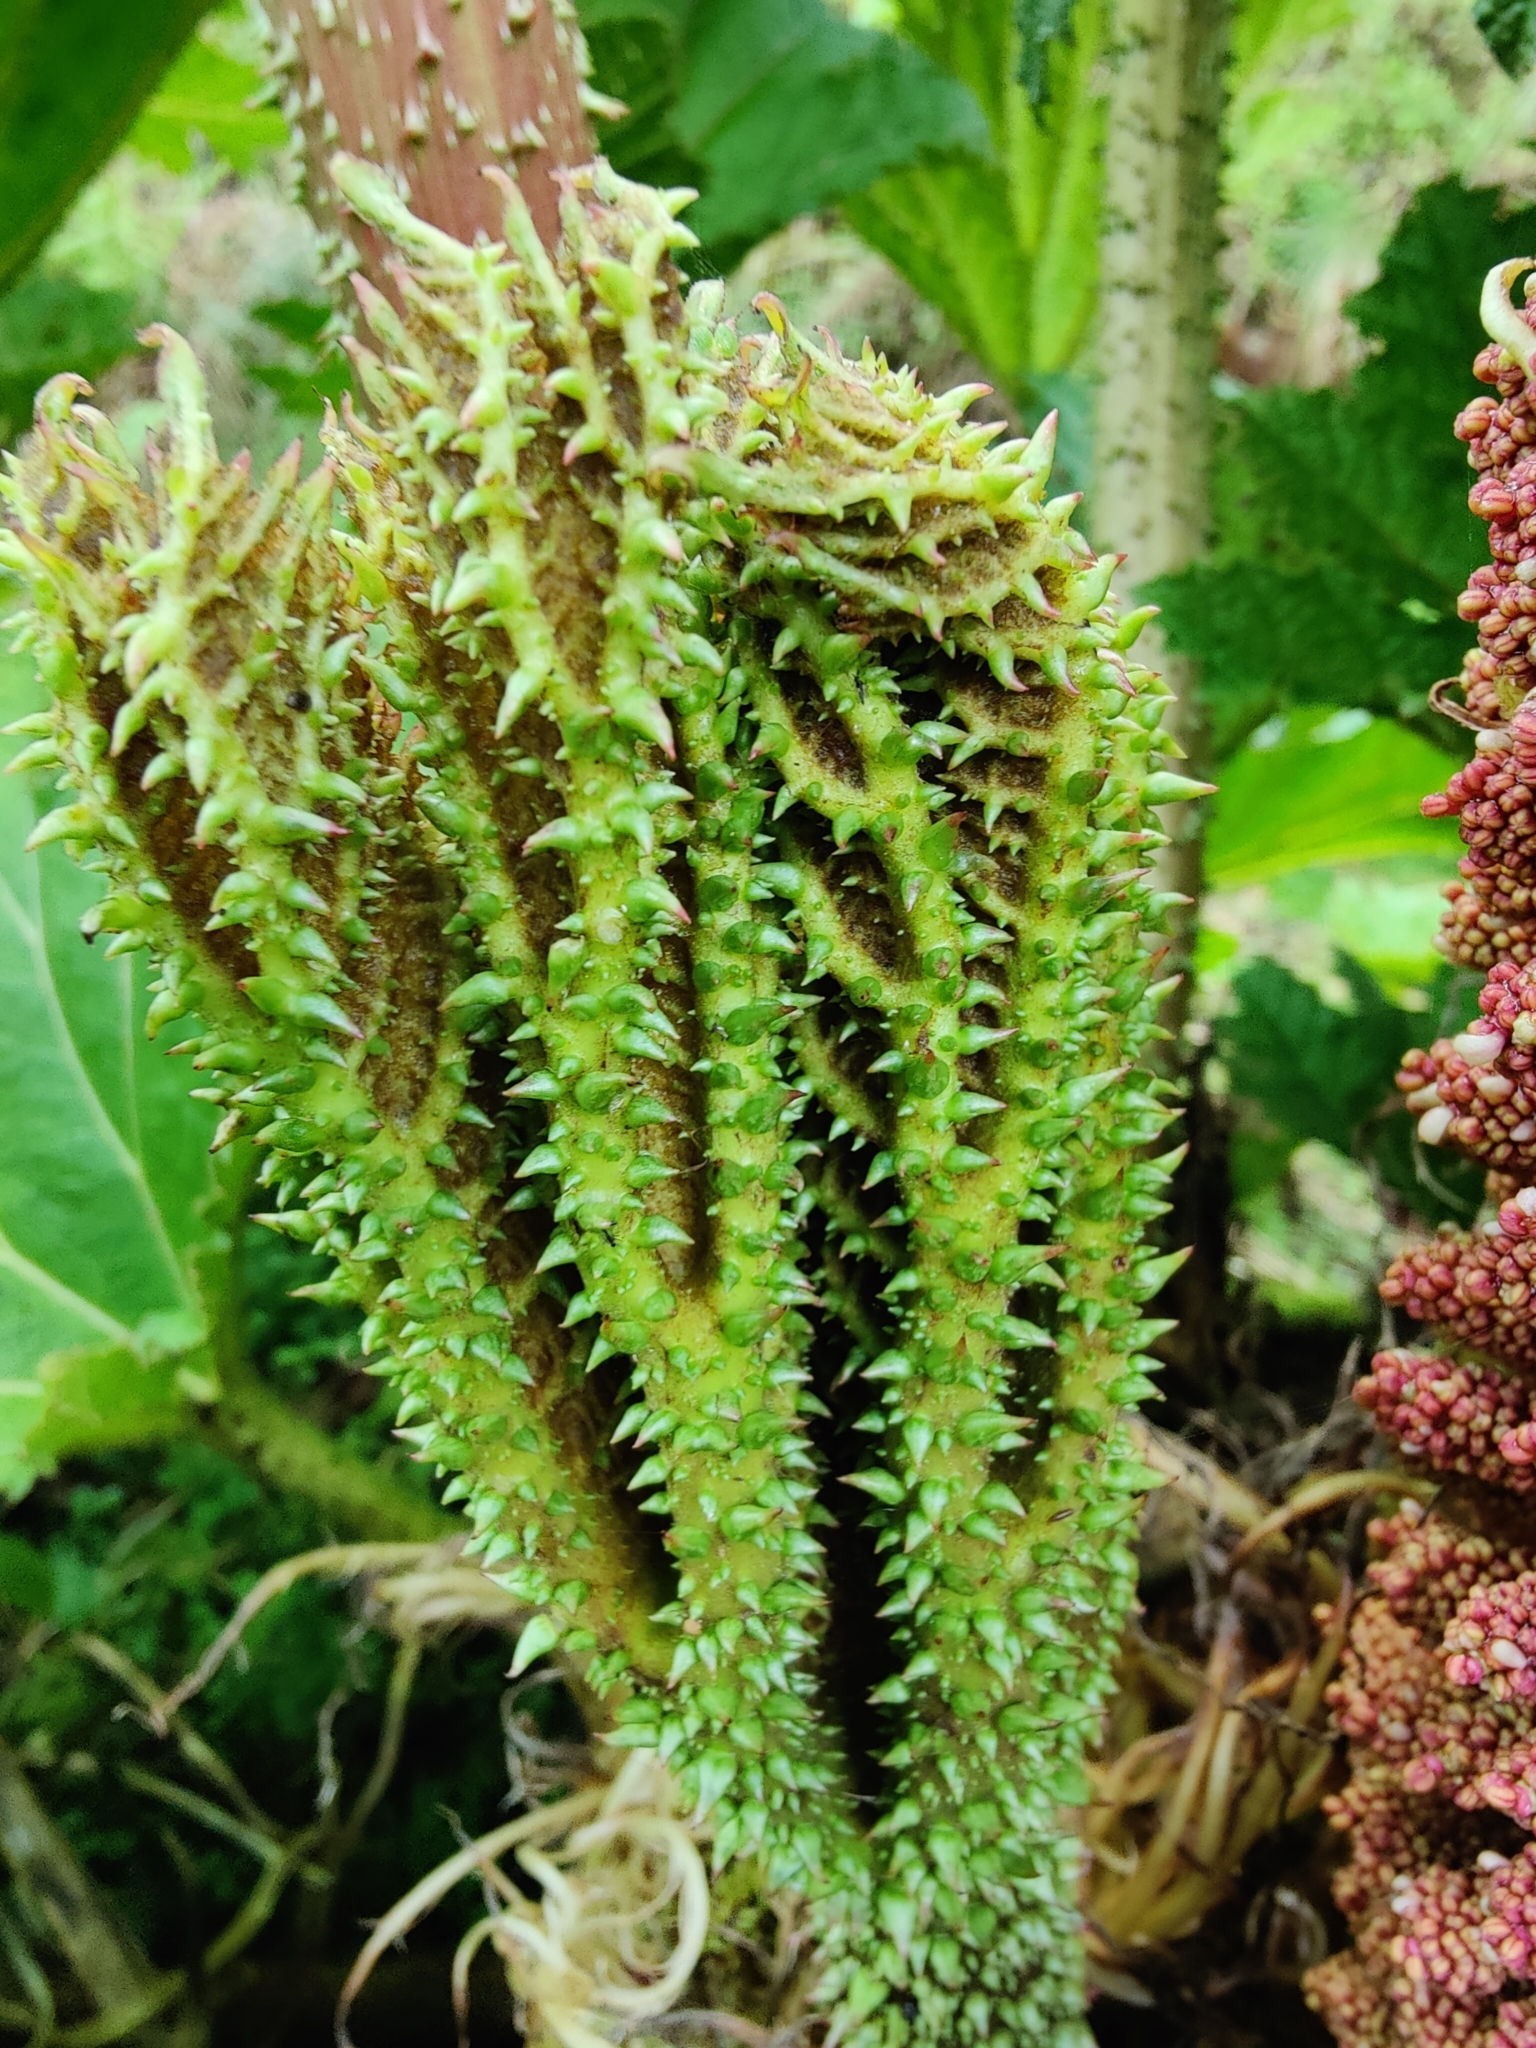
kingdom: Plantae
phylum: Tracheophyta
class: Magnoliopsida
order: Gunnerales
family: Gunneraceae
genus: Gunnera
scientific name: Gunnera tinctoria
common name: Giant-rhubarb
